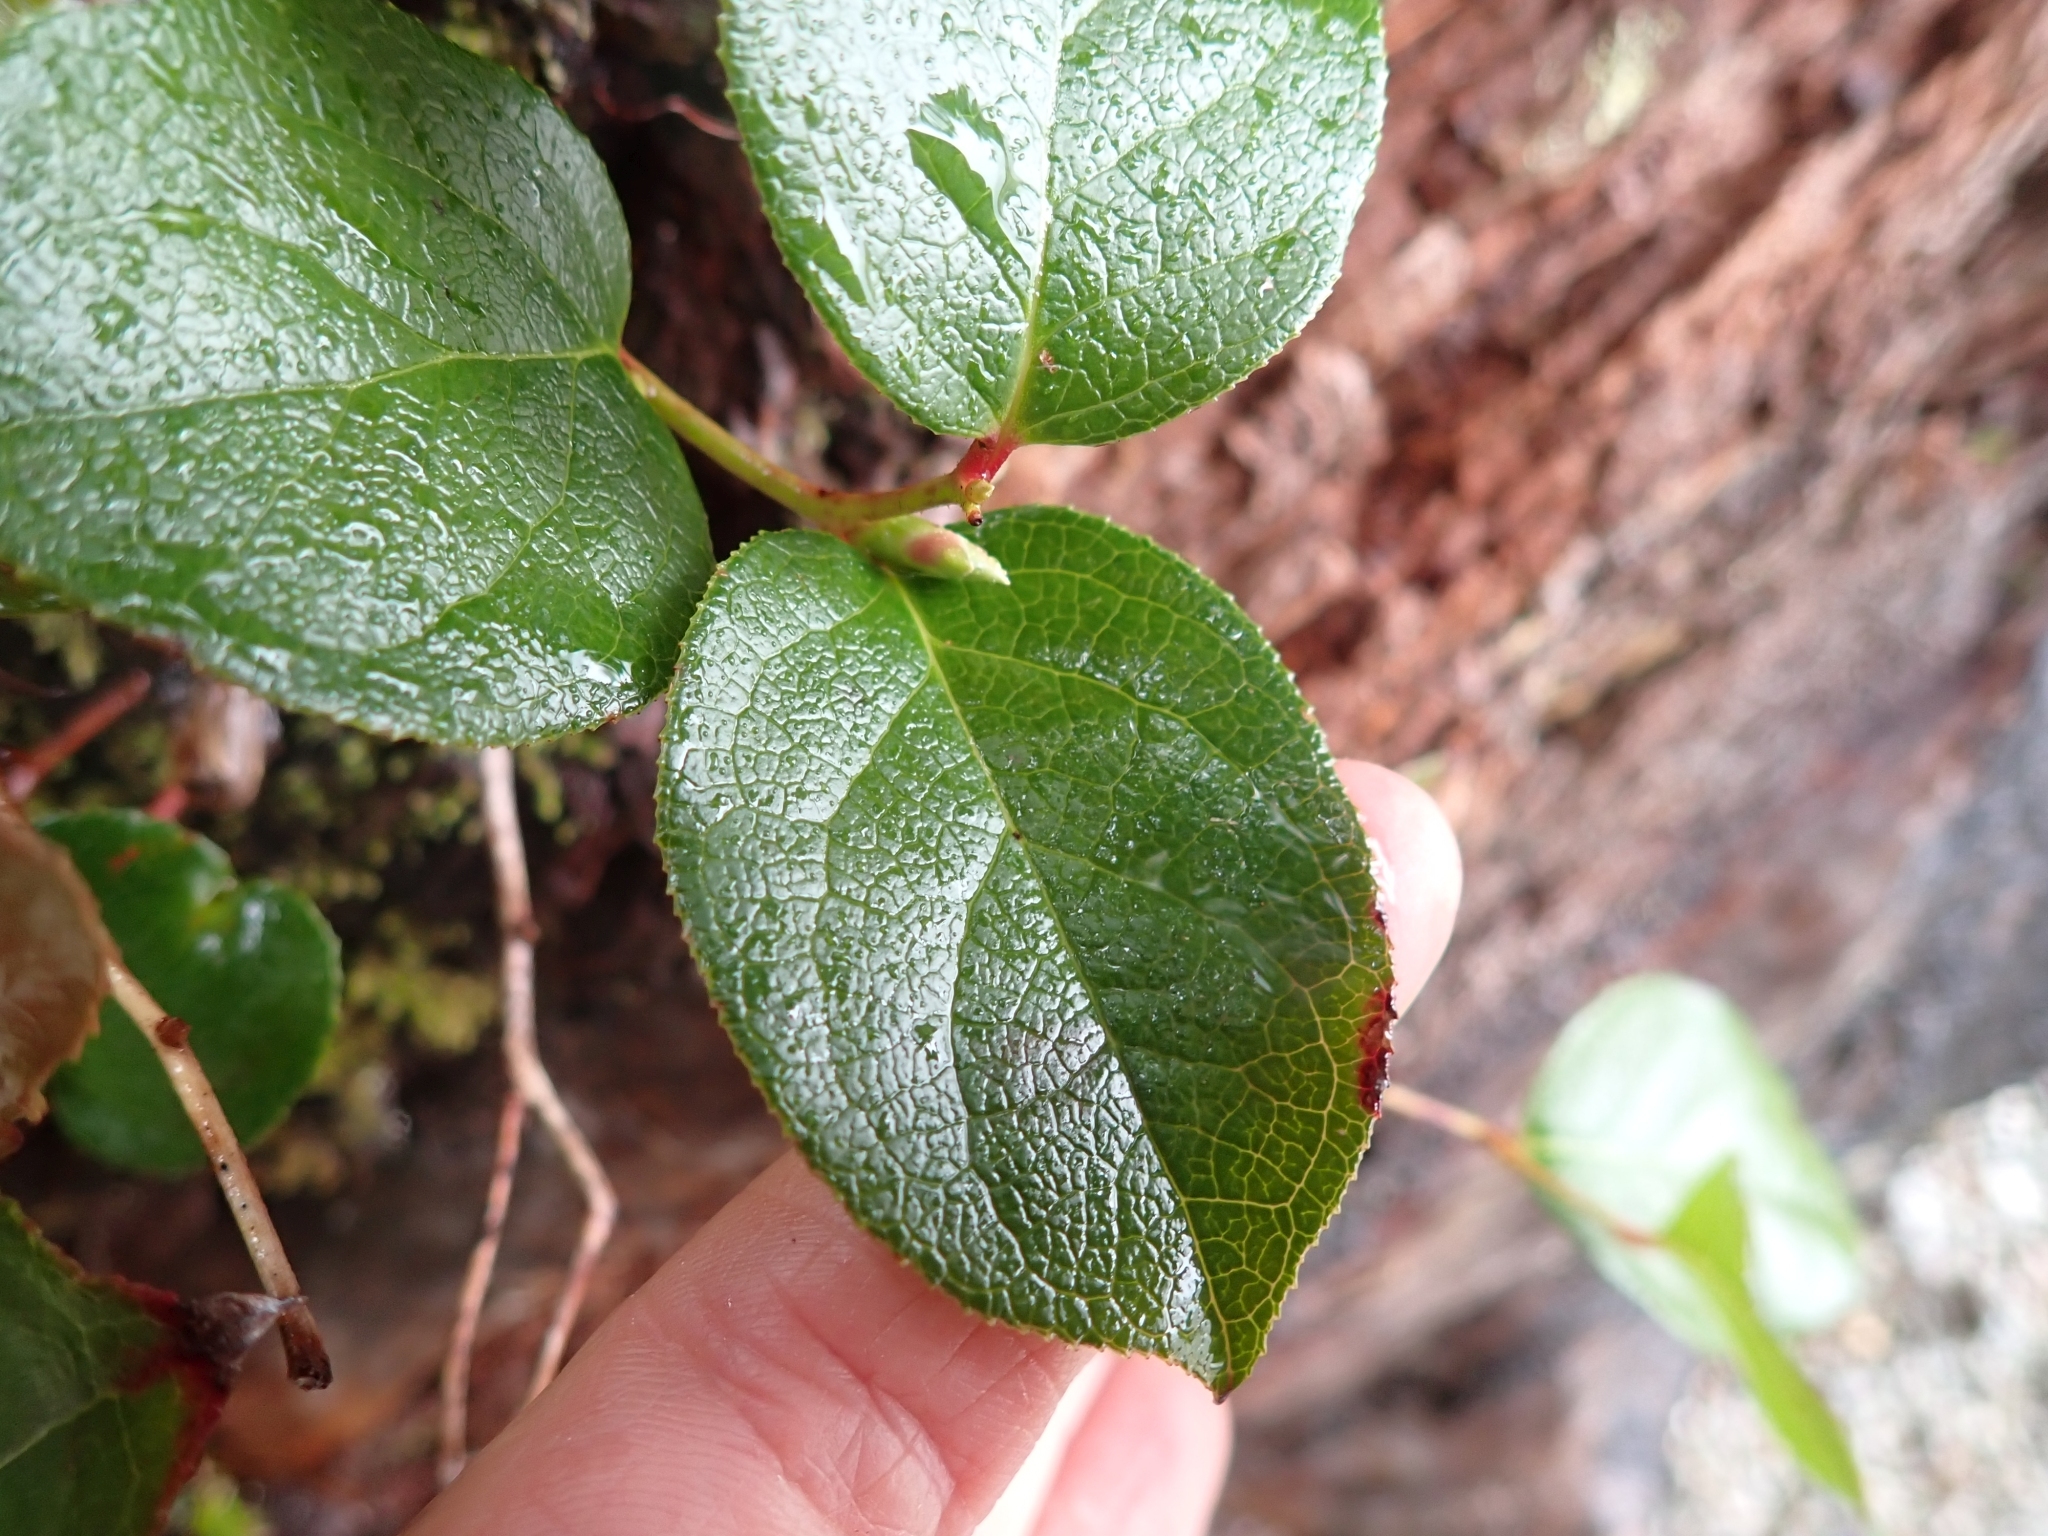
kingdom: Plantae
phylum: Tracheophyta
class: Magnoliopsida
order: Ericales
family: Ericaceae
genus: Gaultheria
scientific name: Gaultheria shallon
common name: Shallon
